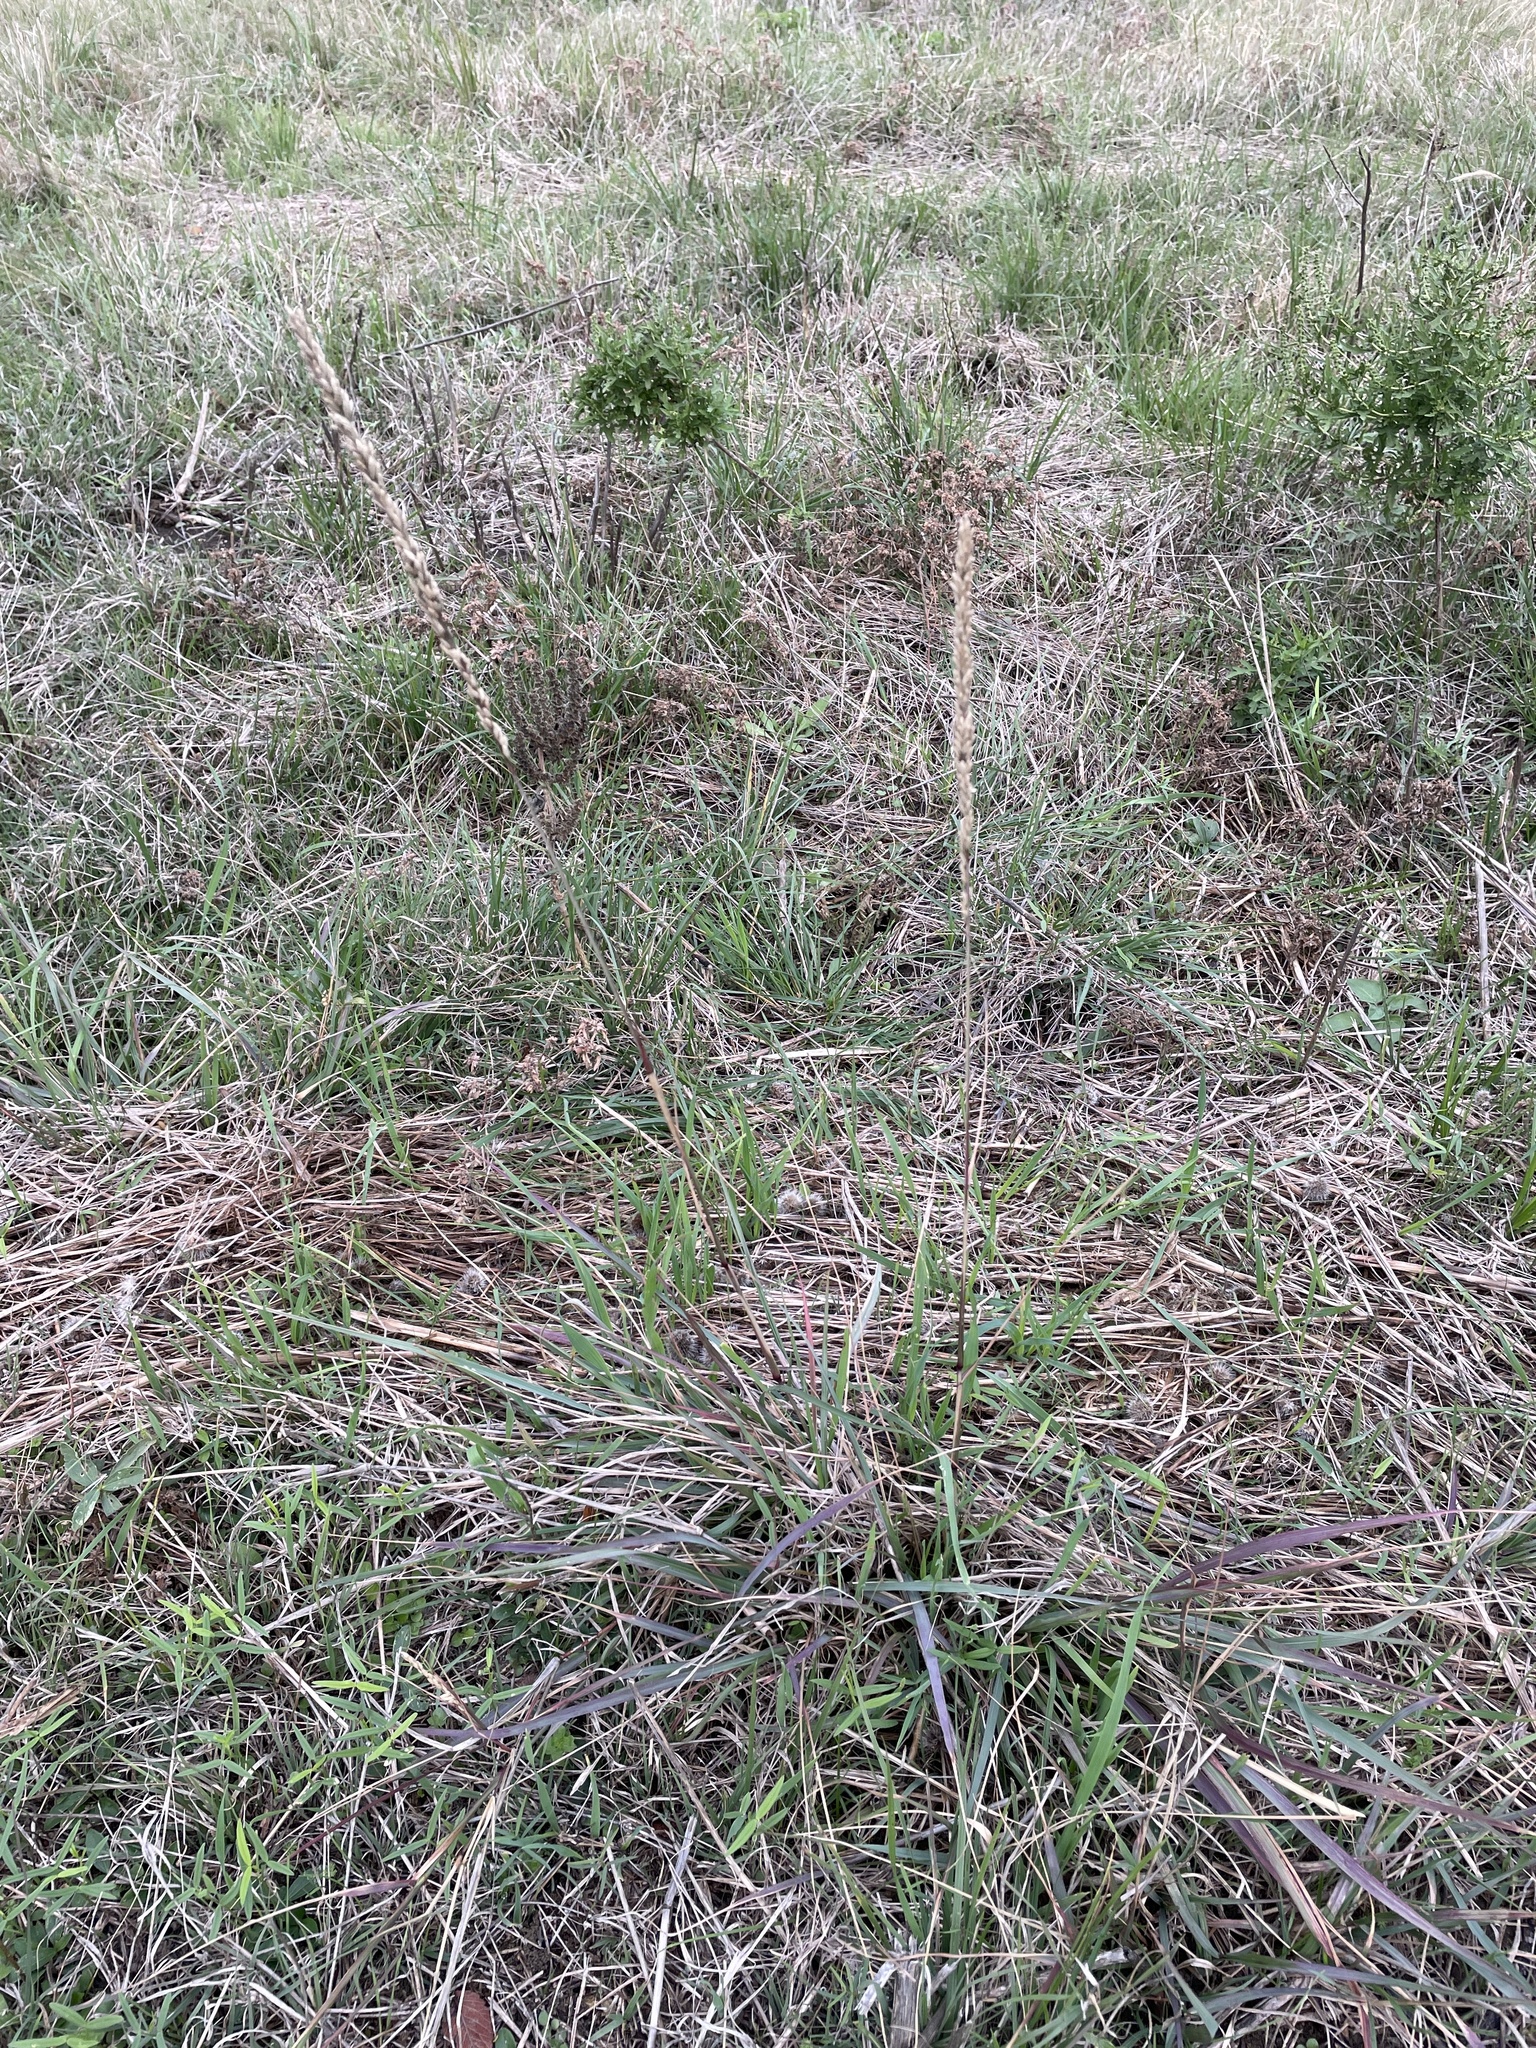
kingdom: Plantae
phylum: Tracheophyta
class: Liliopsida
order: Poales
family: Poaceae
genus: Tridens
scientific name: Tridens albescens
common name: White tridens
